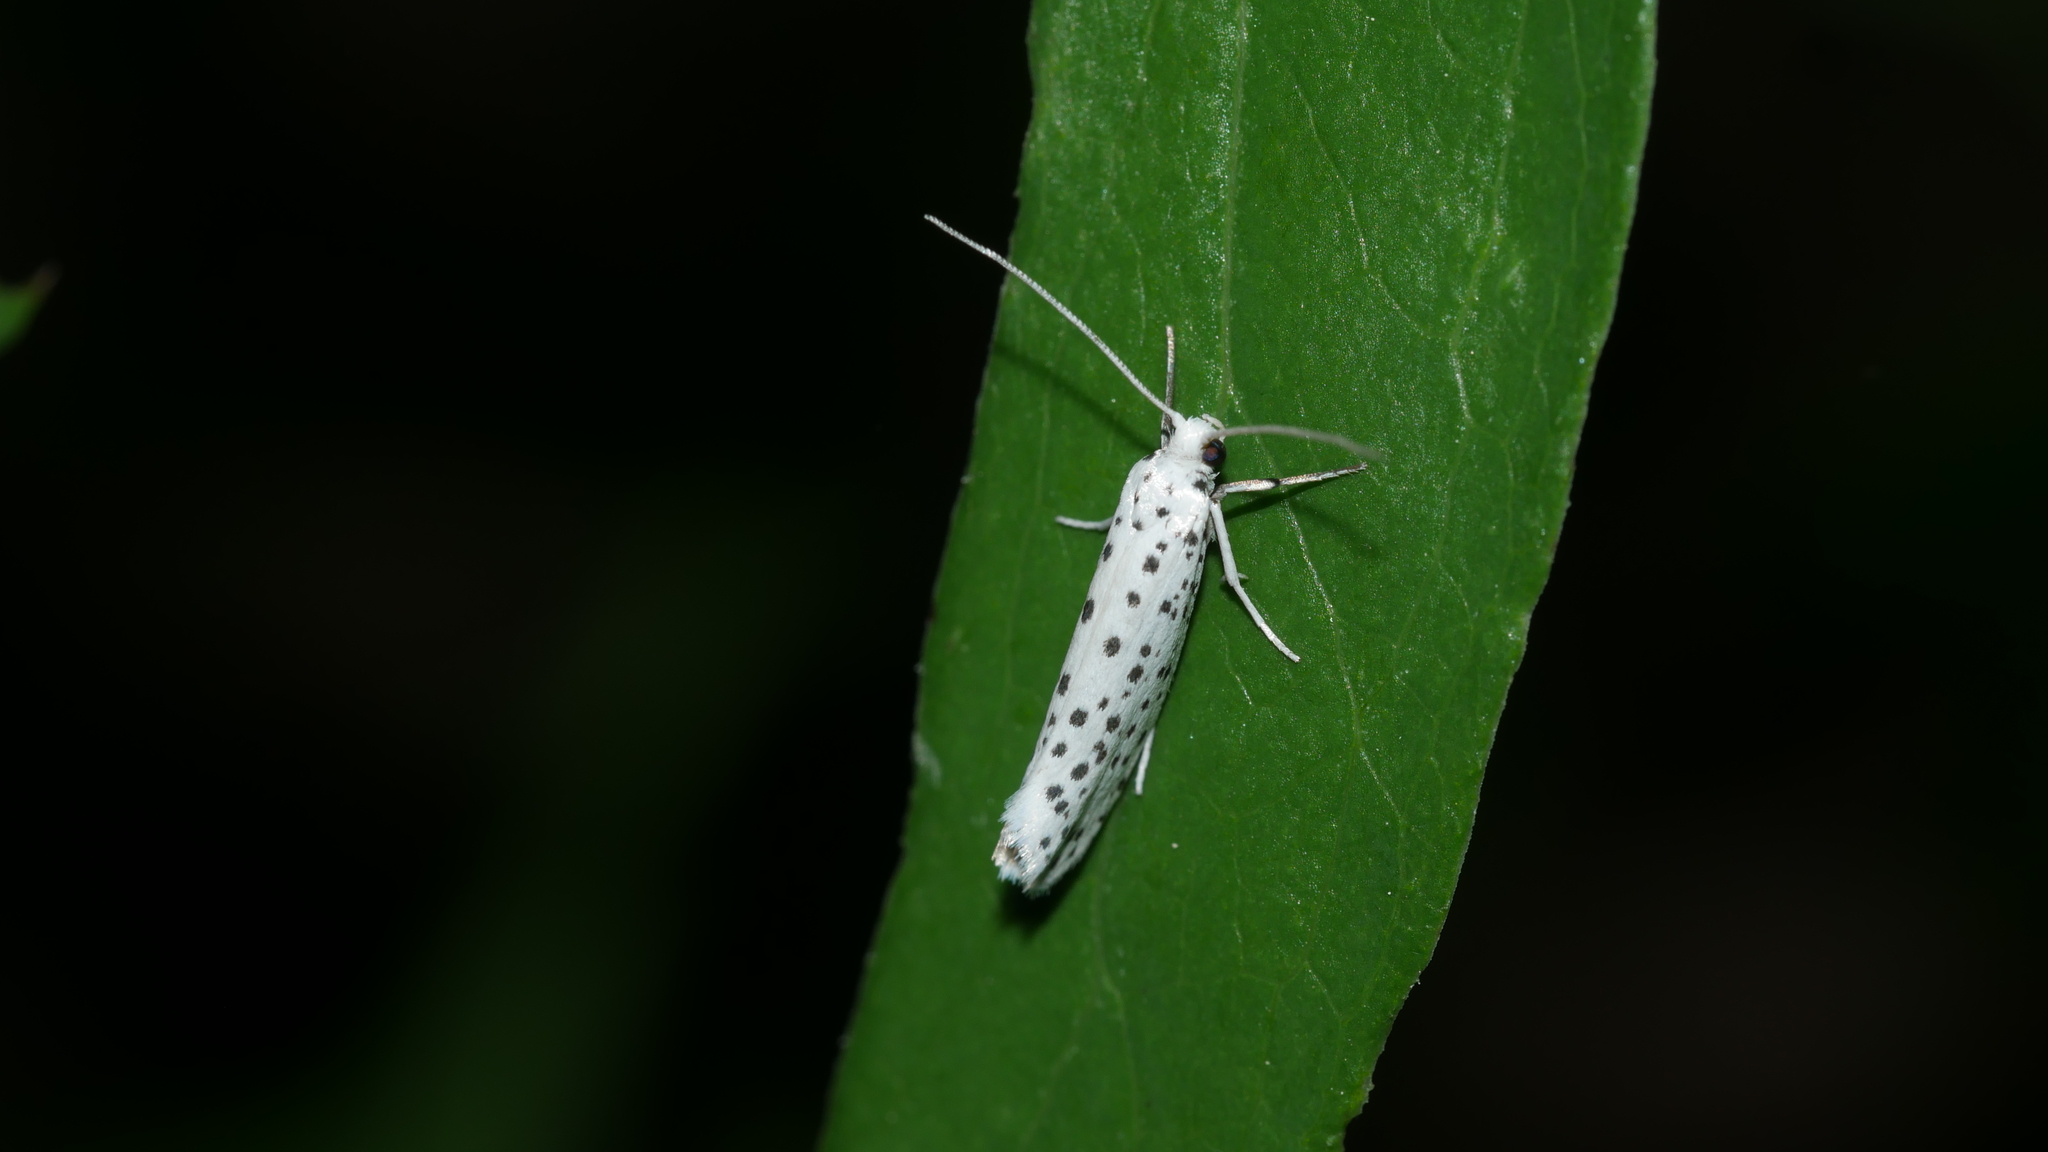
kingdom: Animalia
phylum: Arthropoda
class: Insecta
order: Lepidoptera
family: Yponomeutidae
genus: Yponomeuta
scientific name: Yponomeuta multipunctella
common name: American ermine moth
